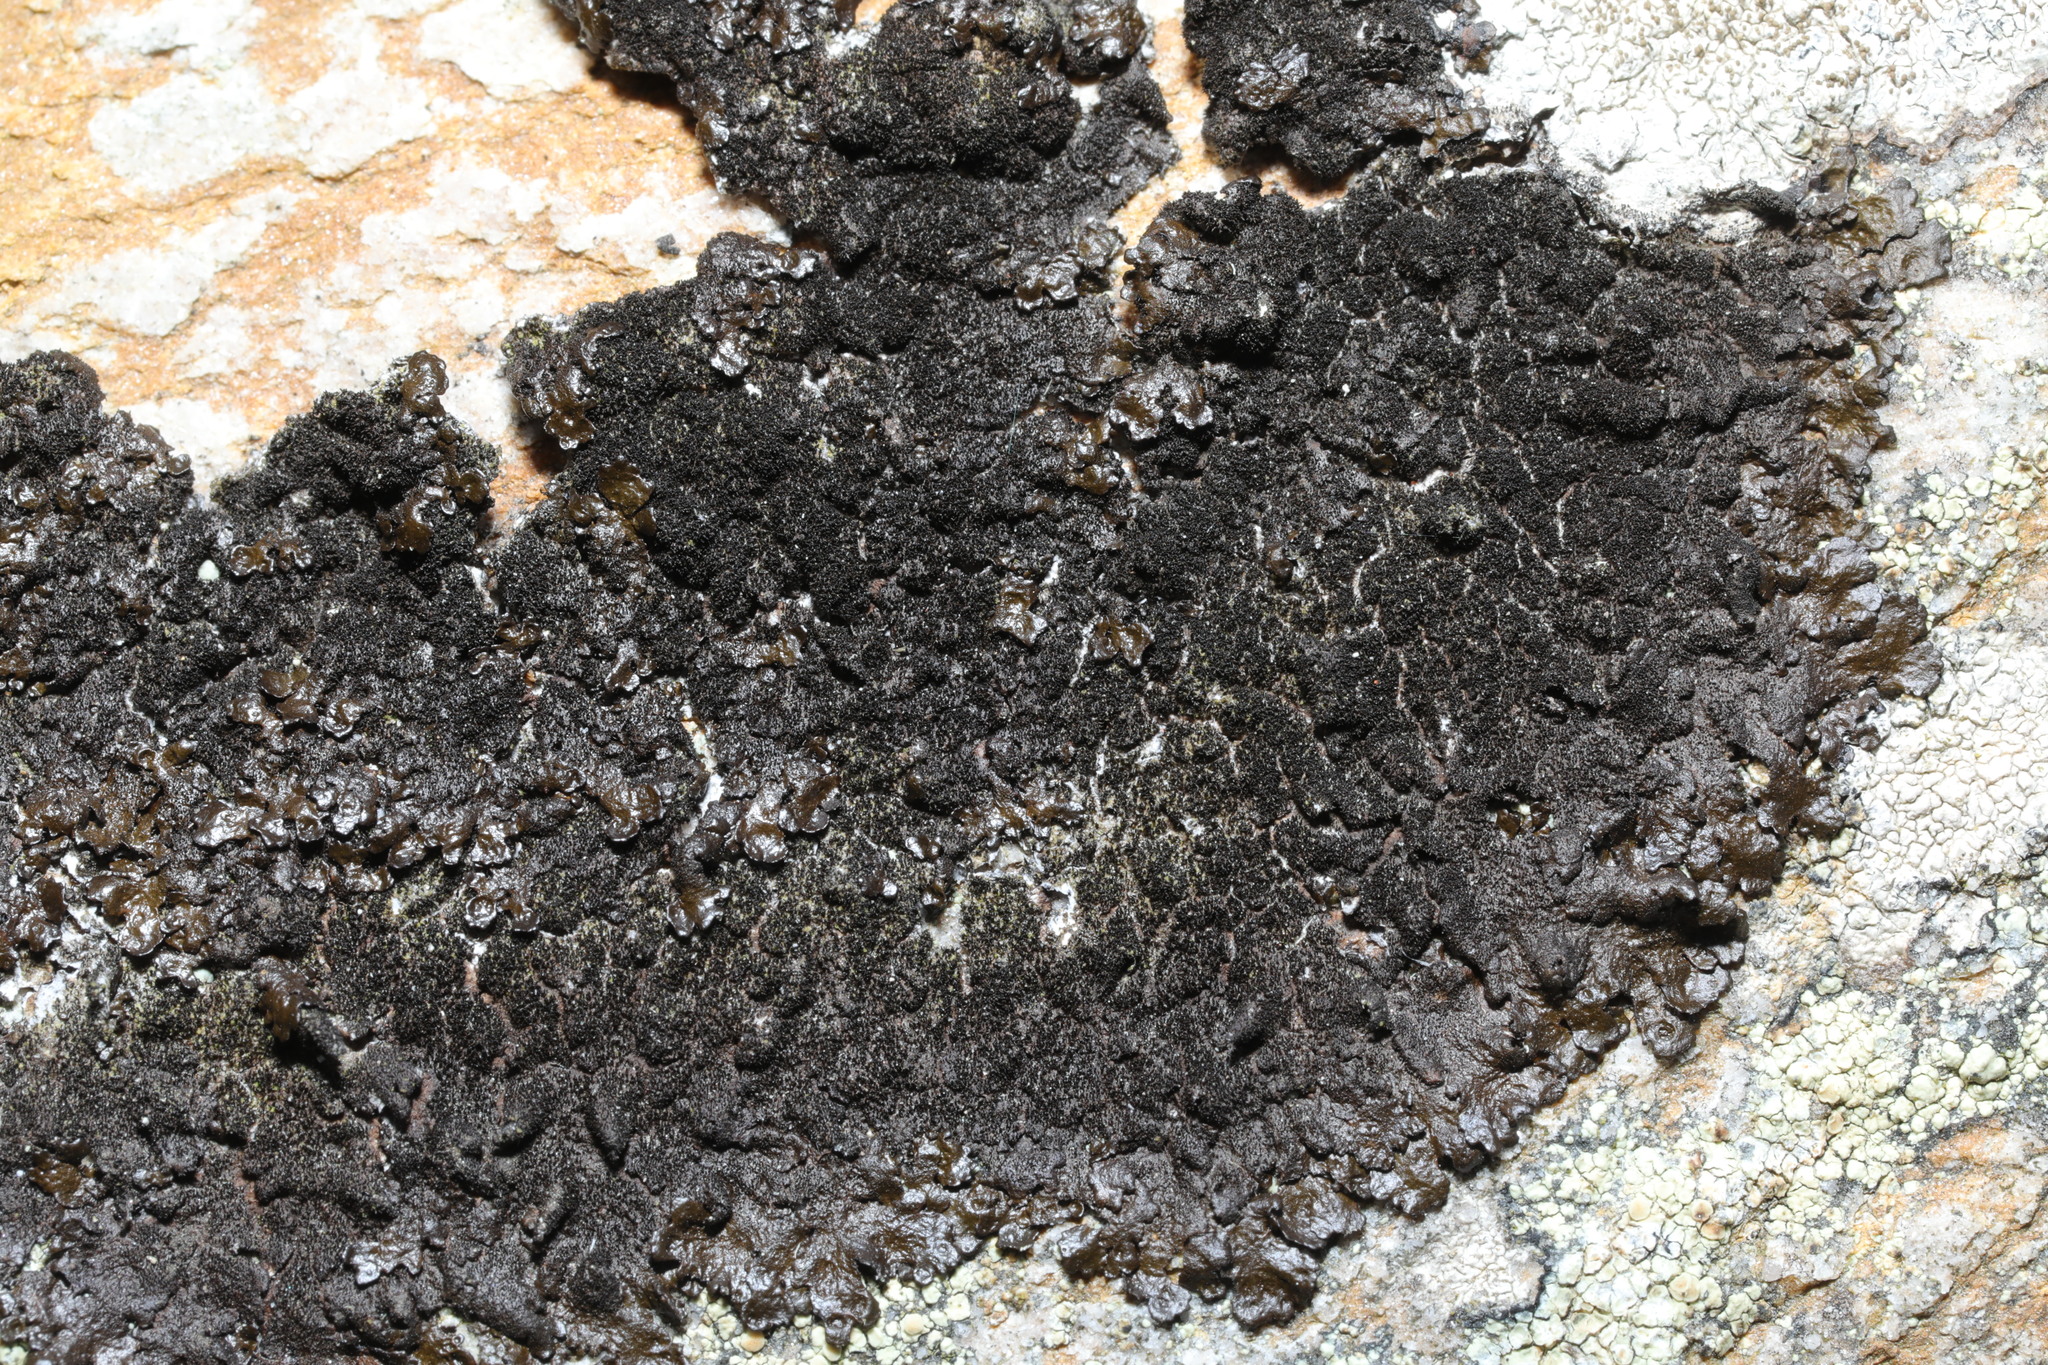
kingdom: Fungi
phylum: Ascomycota
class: Lecanoromycetes
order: Lecanorales
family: Parmeliaceae
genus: Melanelixia
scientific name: Melanelixia fuliginosa
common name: Shiny camouflage lichen
